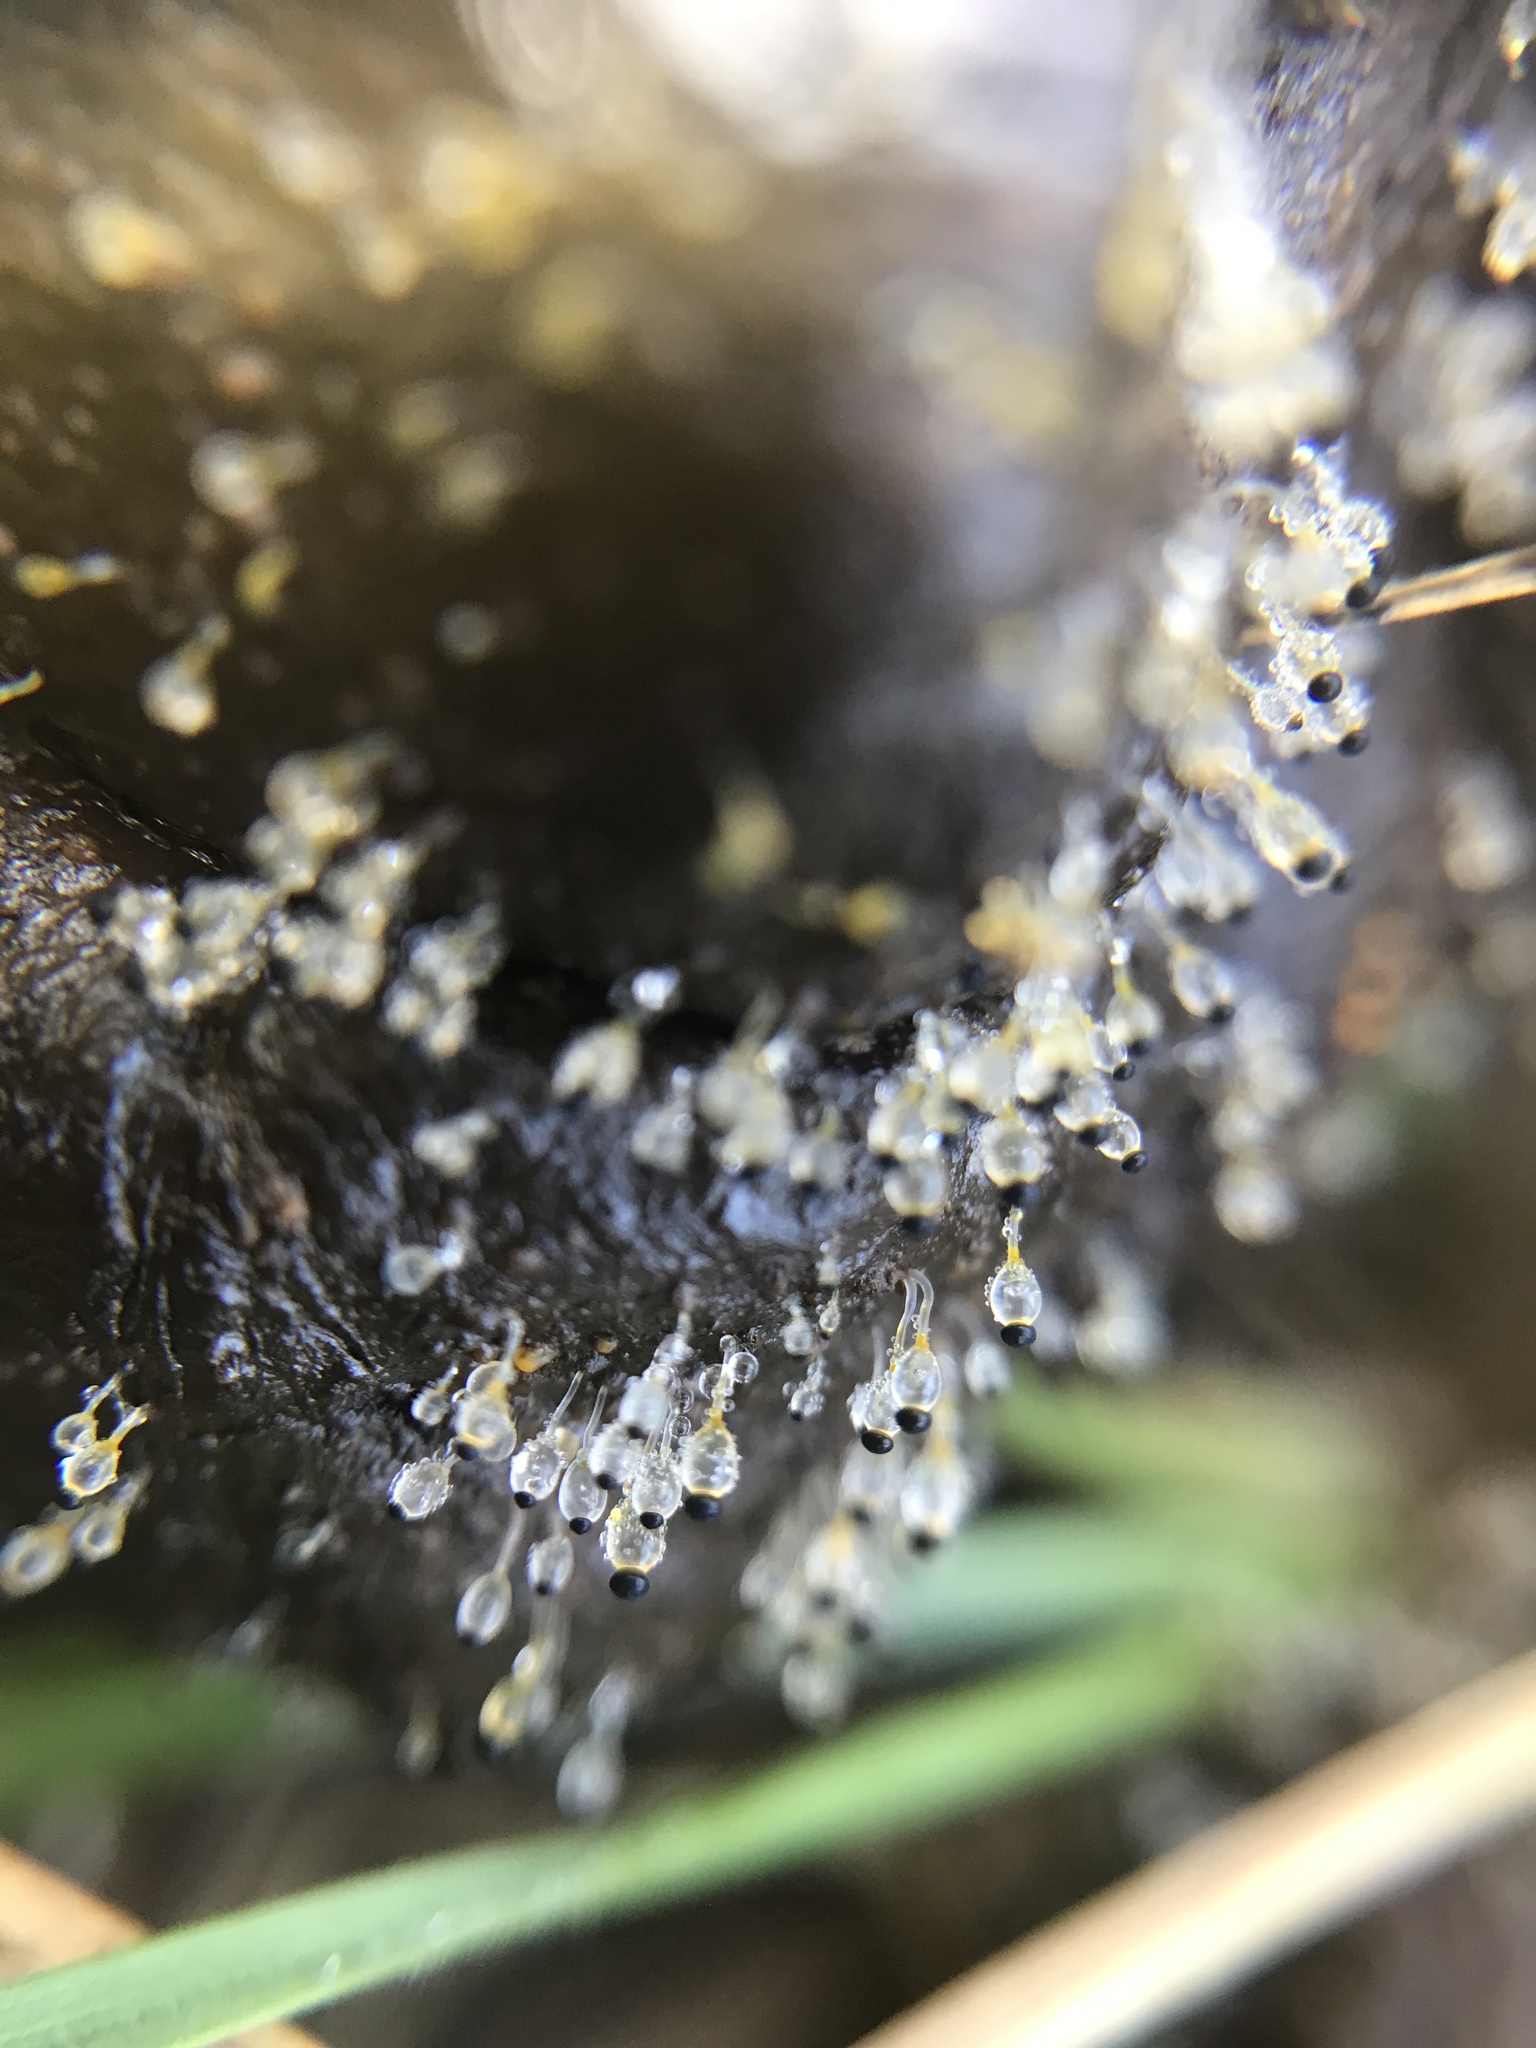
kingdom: Fungi
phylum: Mucoromycota
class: Mucoromycetes
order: Mucorales
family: Pilobolaceae
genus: Pilobolus
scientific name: Pilobolus
